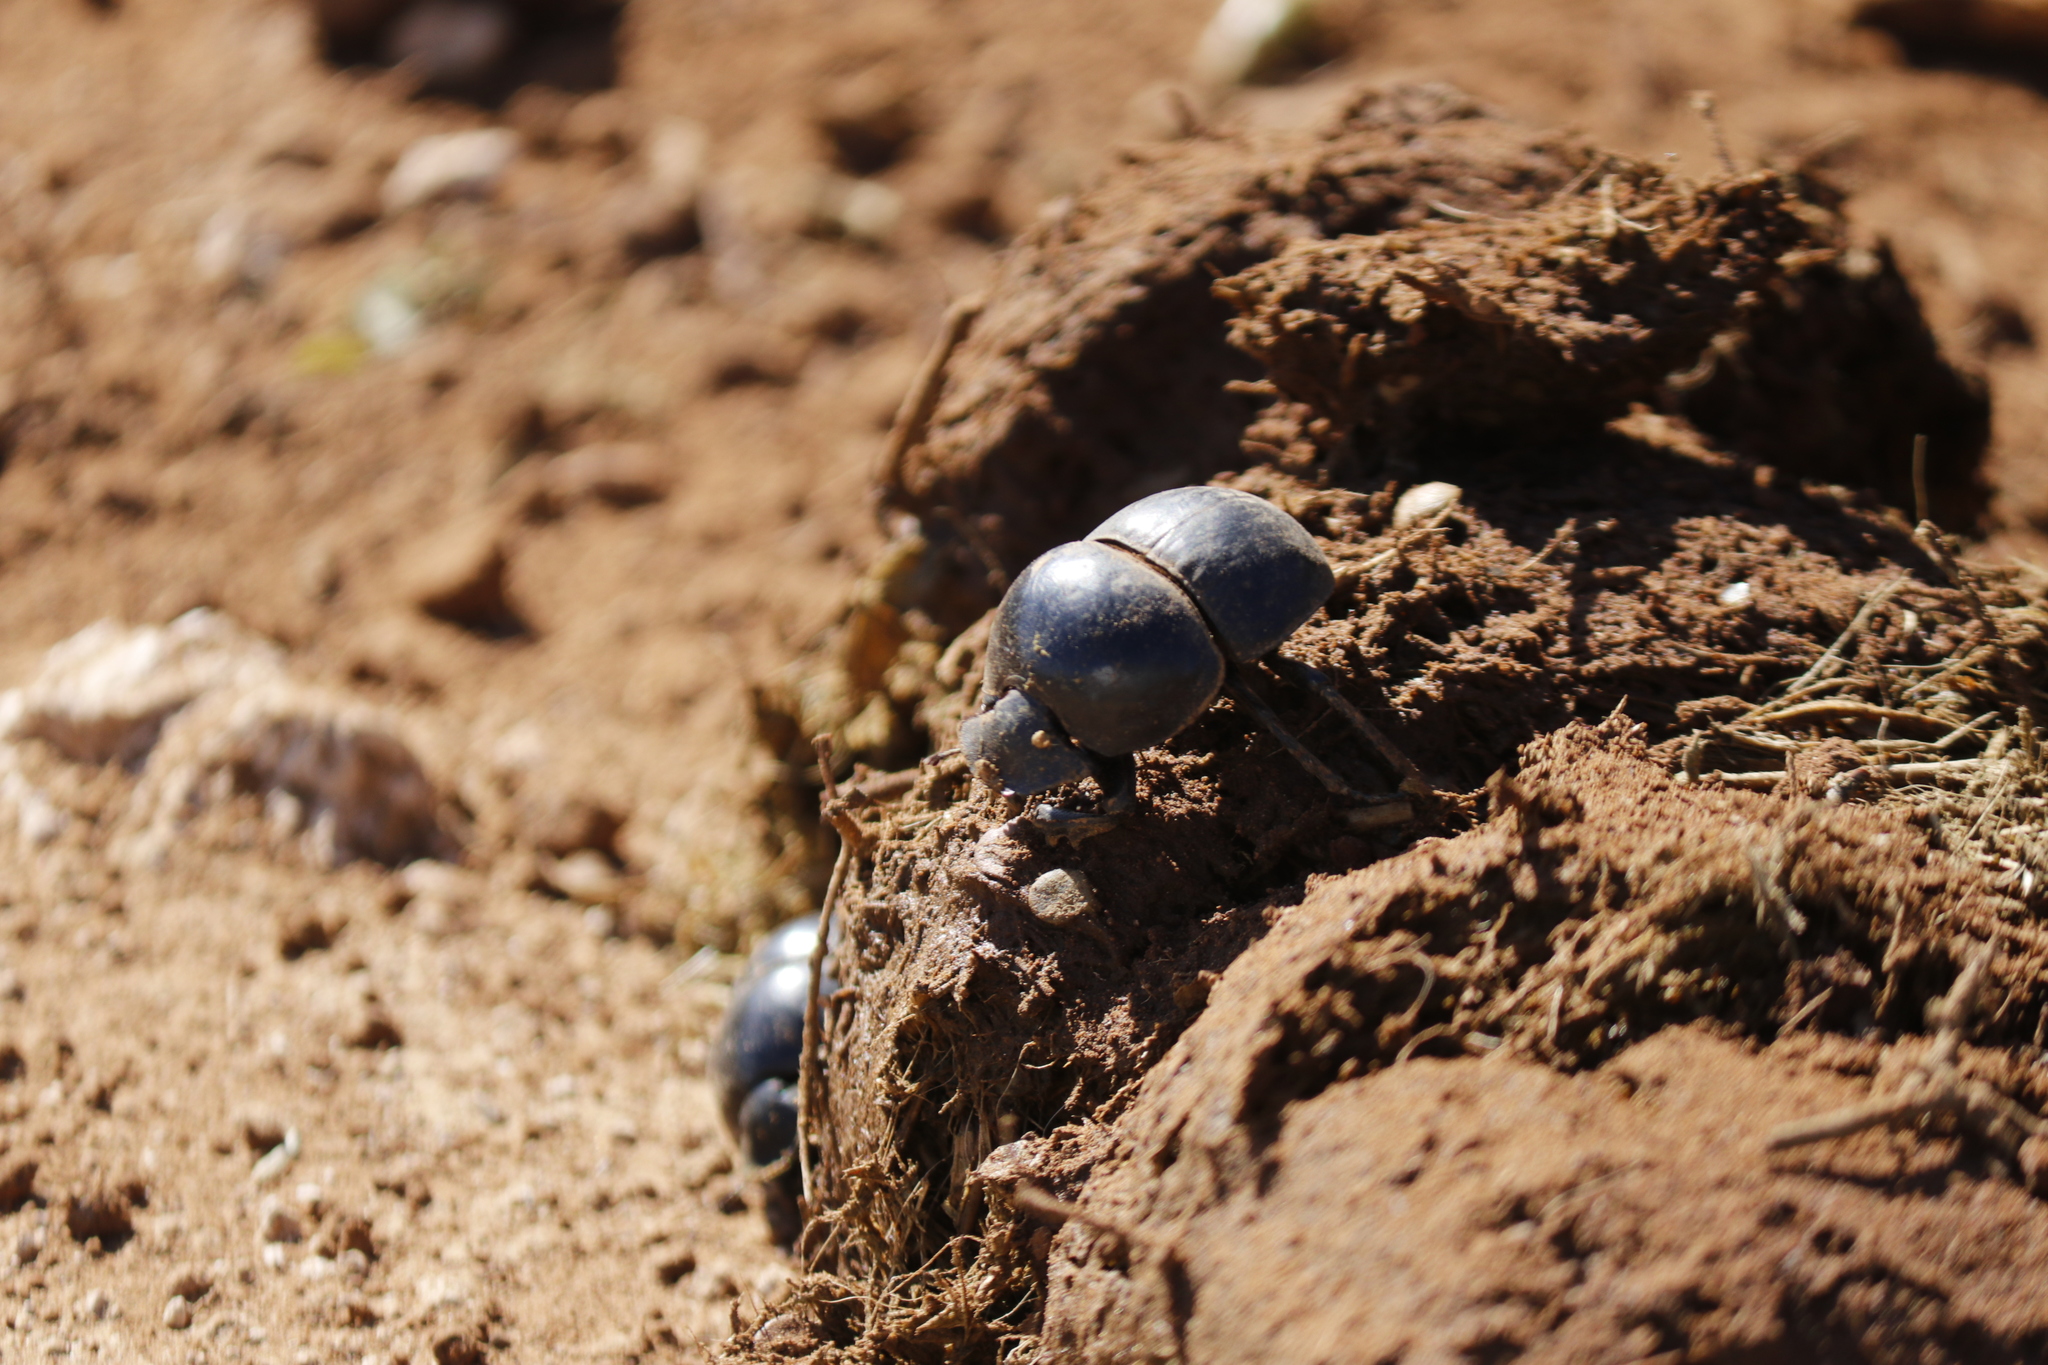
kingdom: Animalia
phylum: Arthropoda
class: Insecta
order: Coleoptera
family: Scarabaeidae
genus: Circellium
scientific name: Circellium bacchus
